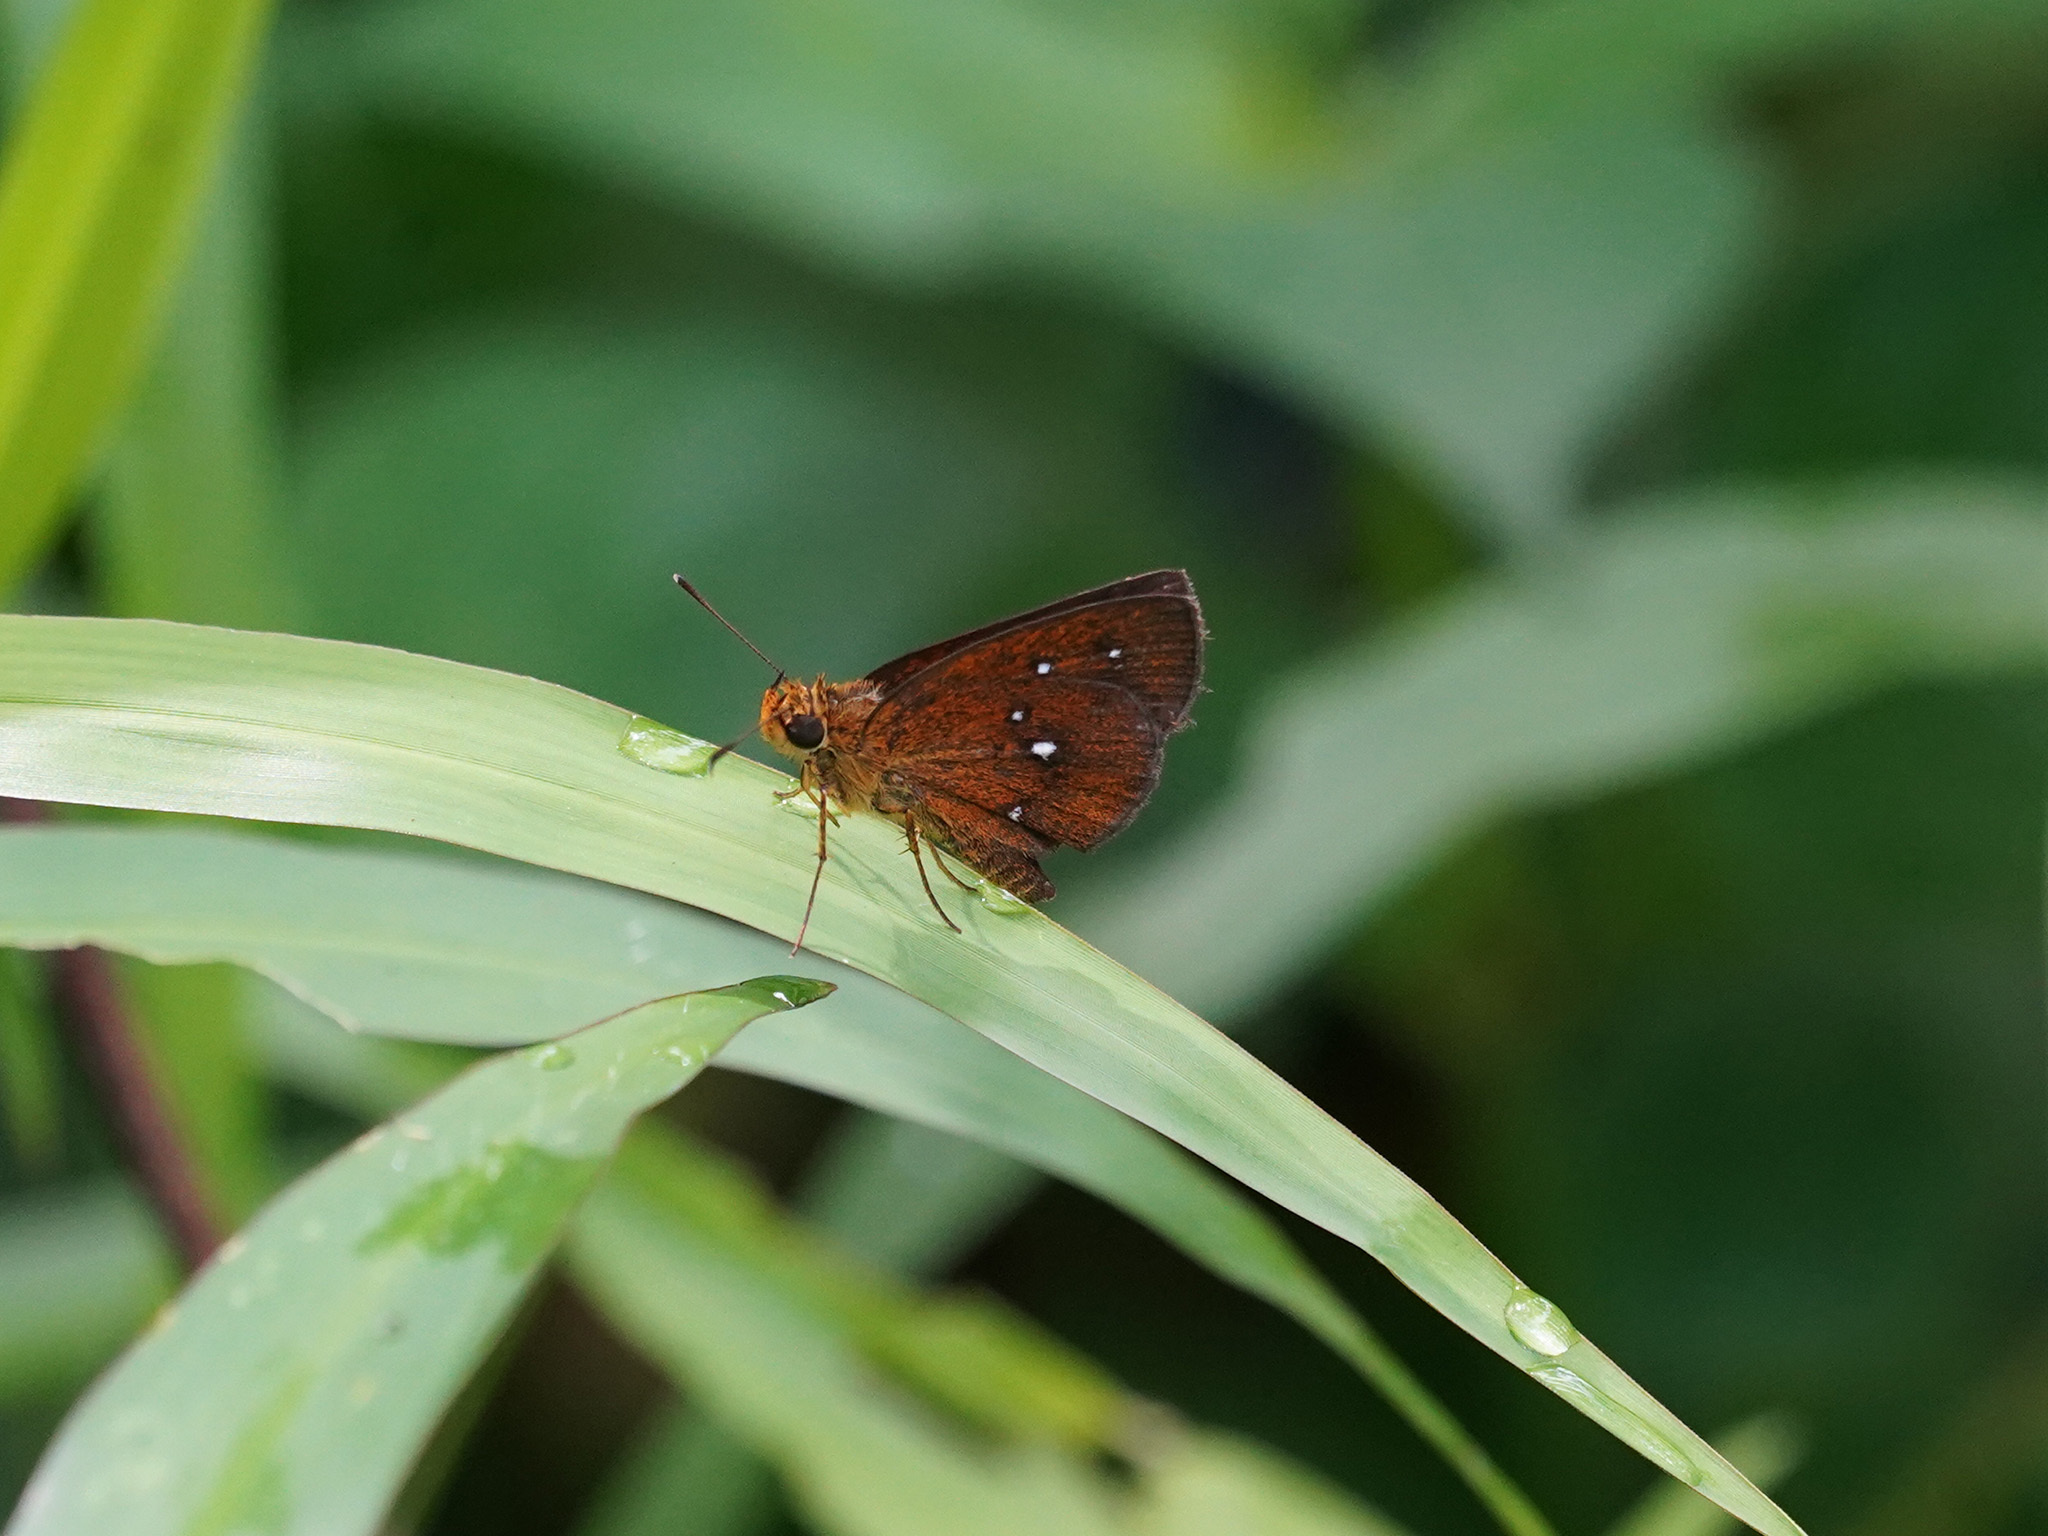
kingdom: Animalia
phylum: Arthropoda
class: Insecta
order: Lepidoptera
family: Hesperiidae
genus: Iambrix
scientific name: Iambrix salsala
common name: Chestnut bob
